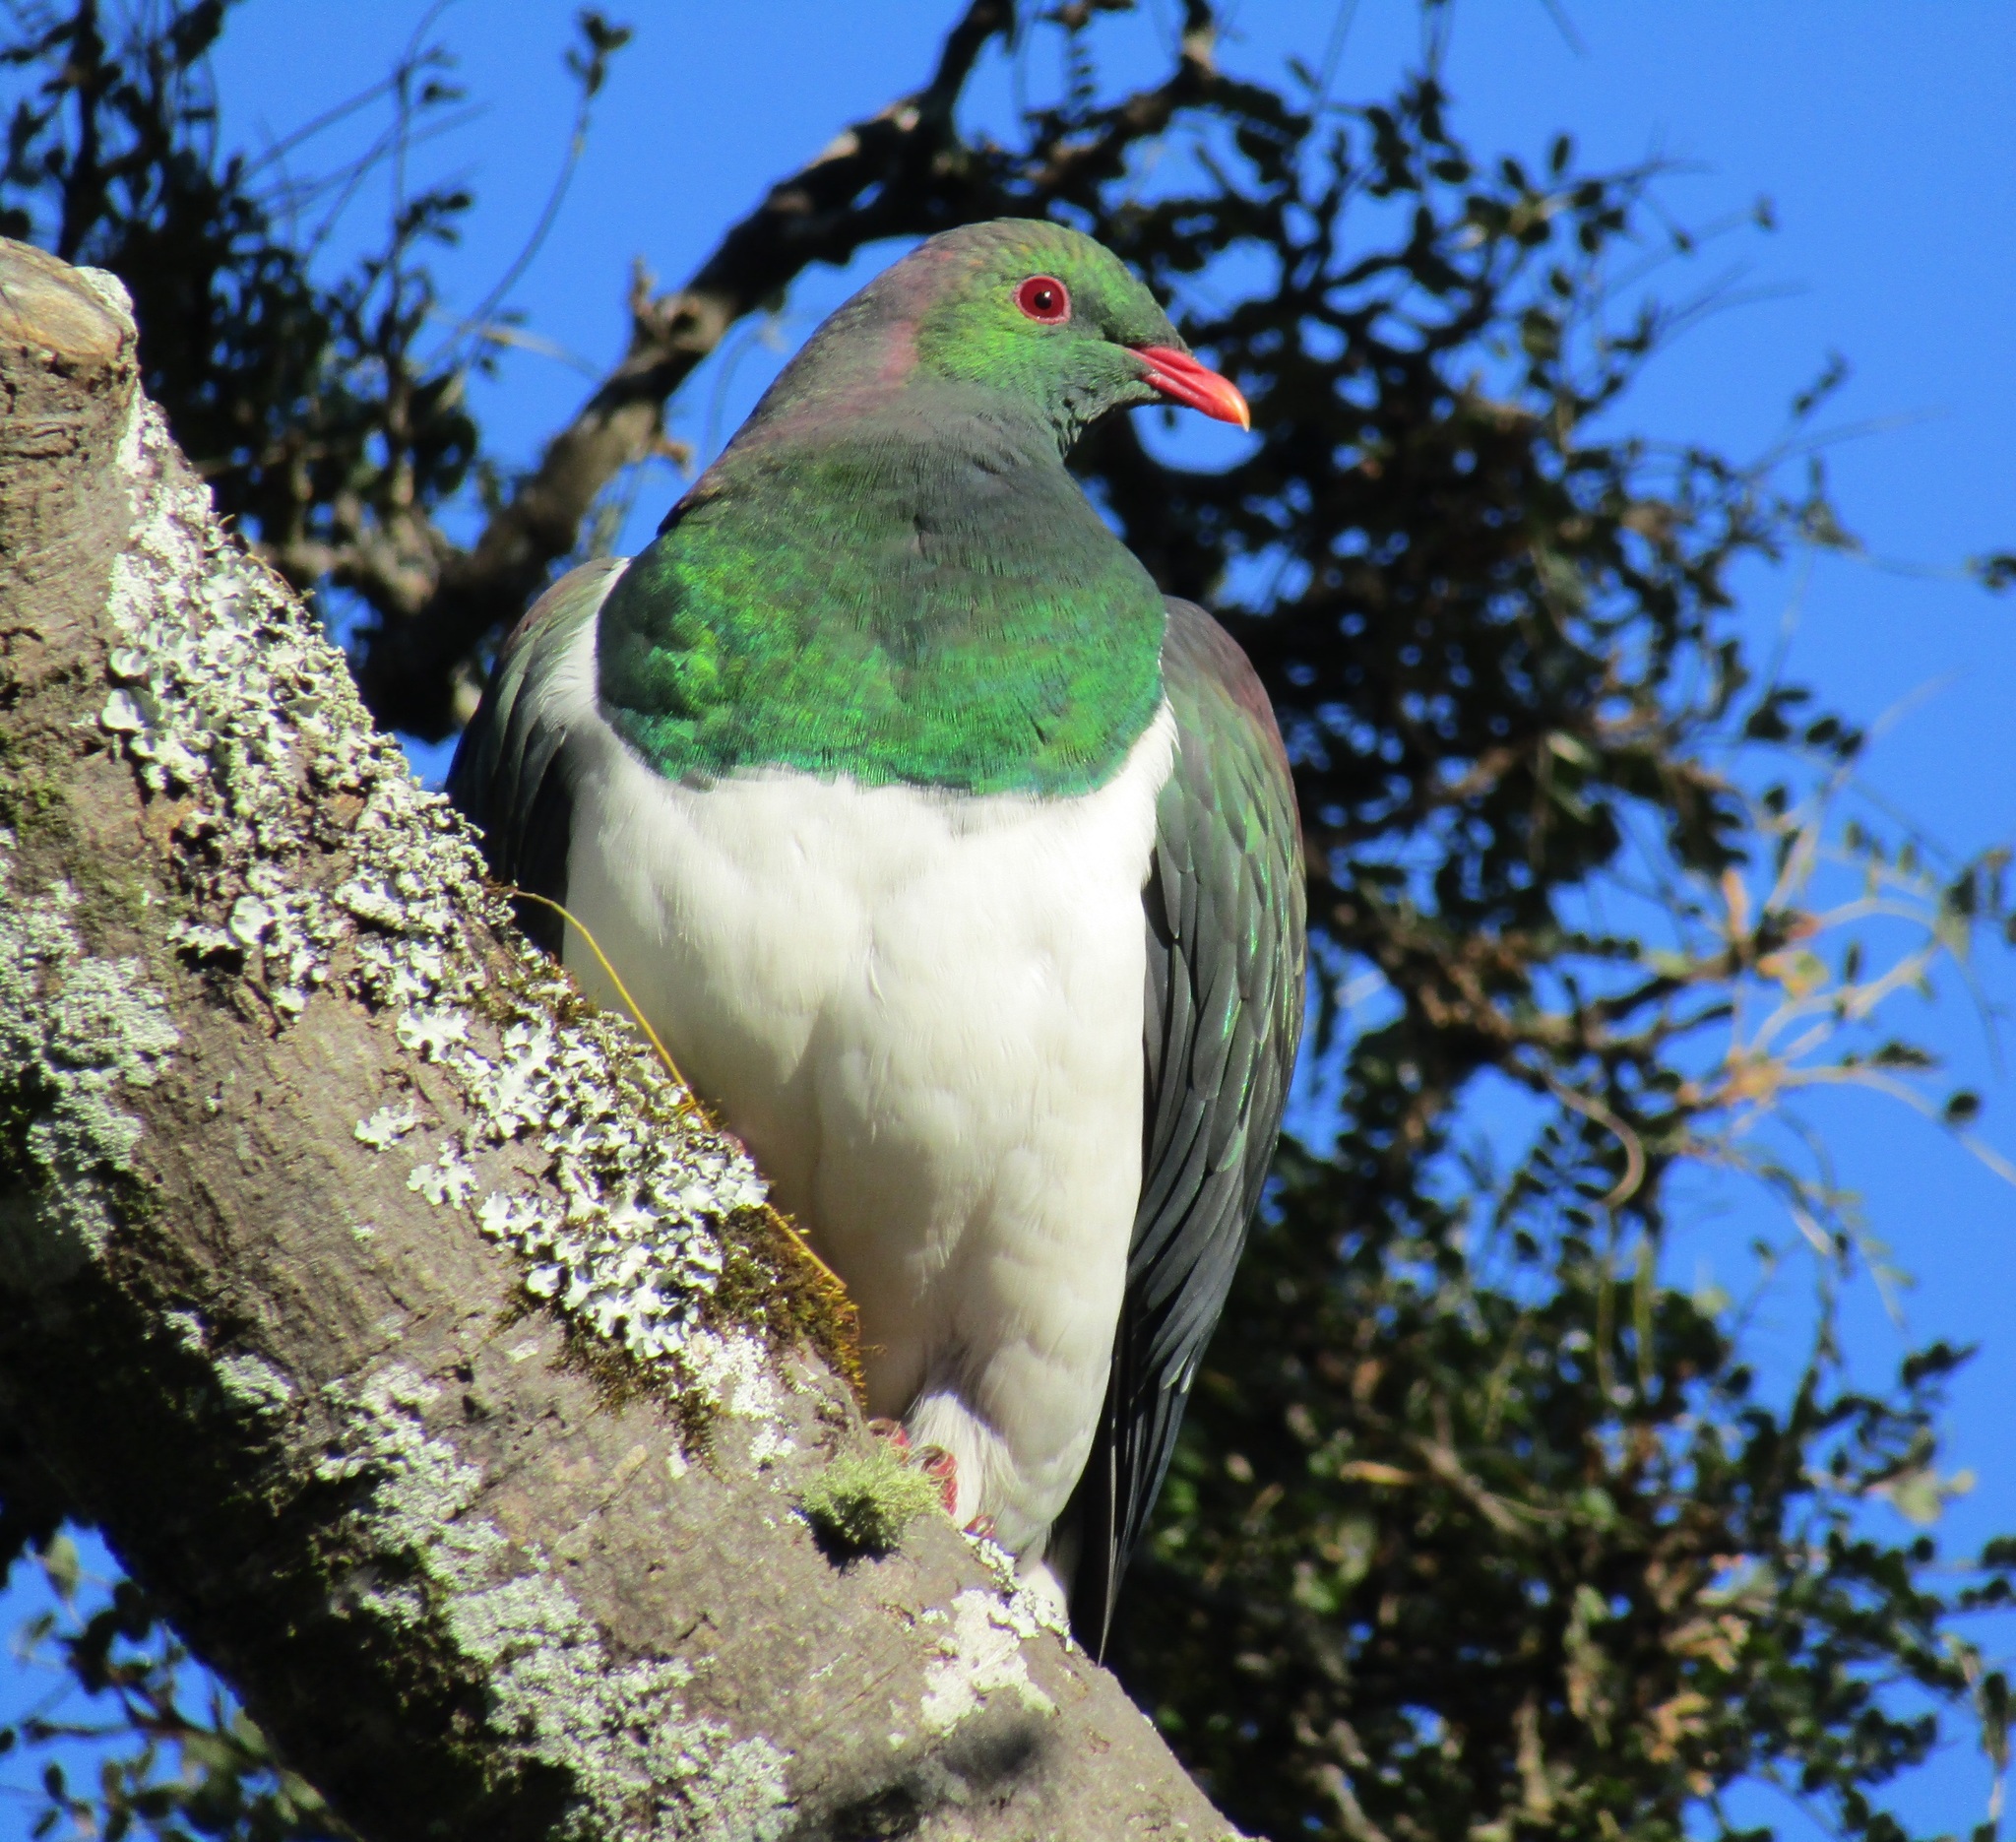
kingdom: Animalia
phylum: Chordata
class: Aves
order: Columbiformes
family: Columbidae
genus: Hemiphaga
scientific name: Hemiphaga novaeseelandiae
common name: New zealand pigeon
